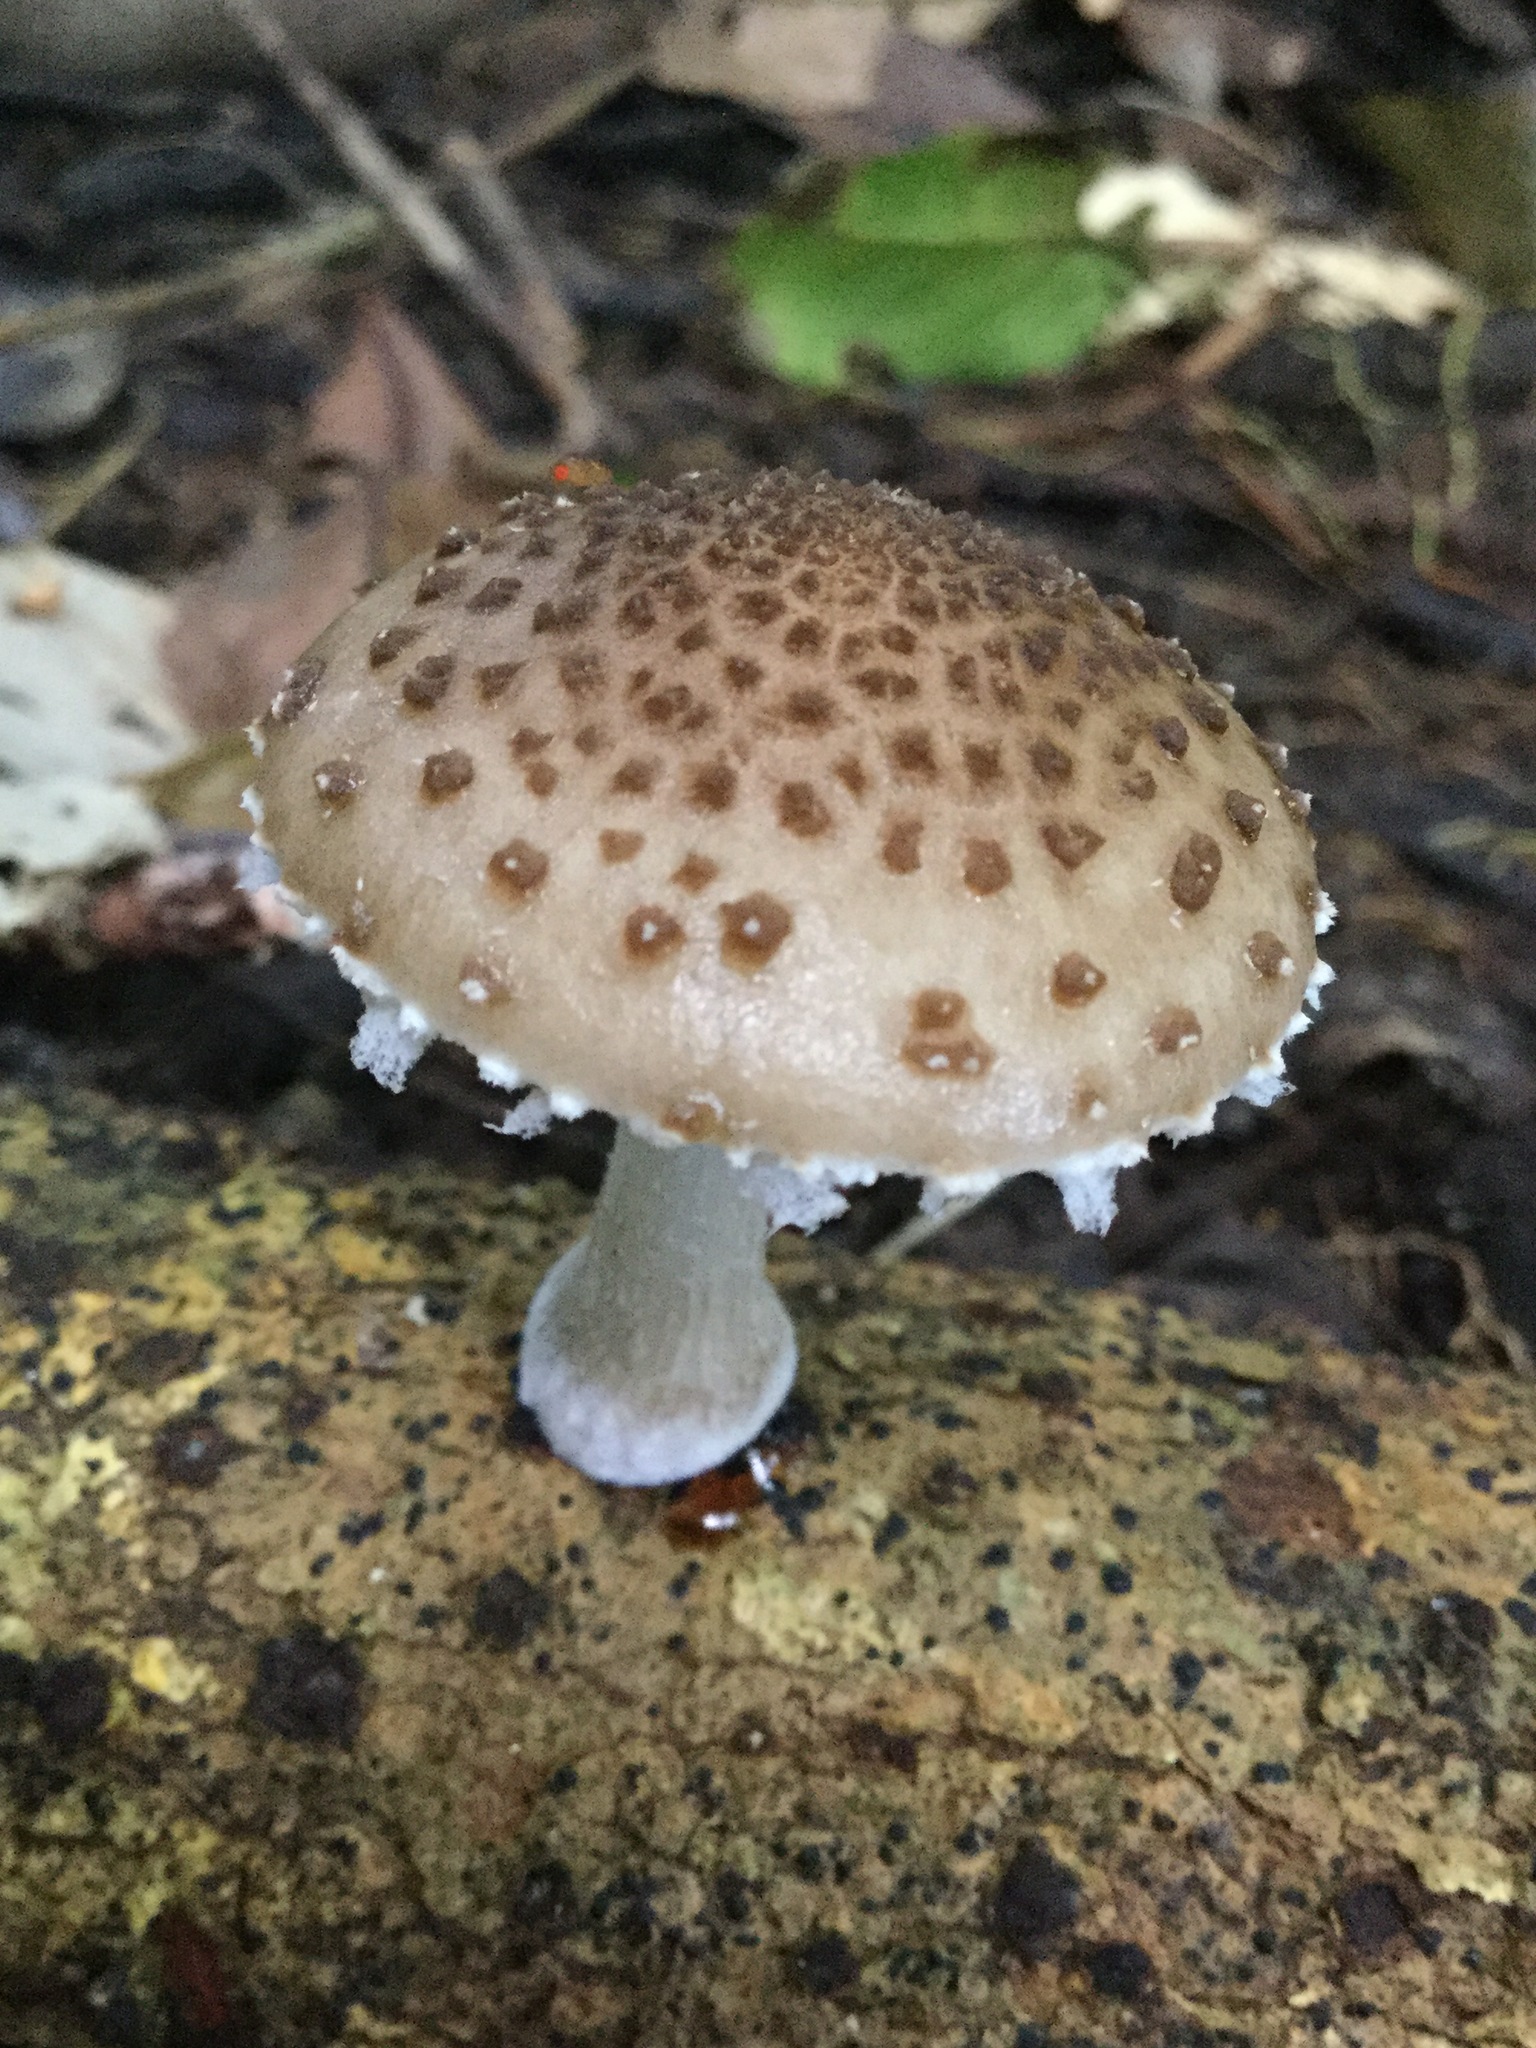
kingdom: Fungi
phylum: Basidiomycota
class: Agaricomycetes
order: Agaricales
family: Physalacriaceae
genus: Oudemansiella
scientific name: Oudemansiella canarii
